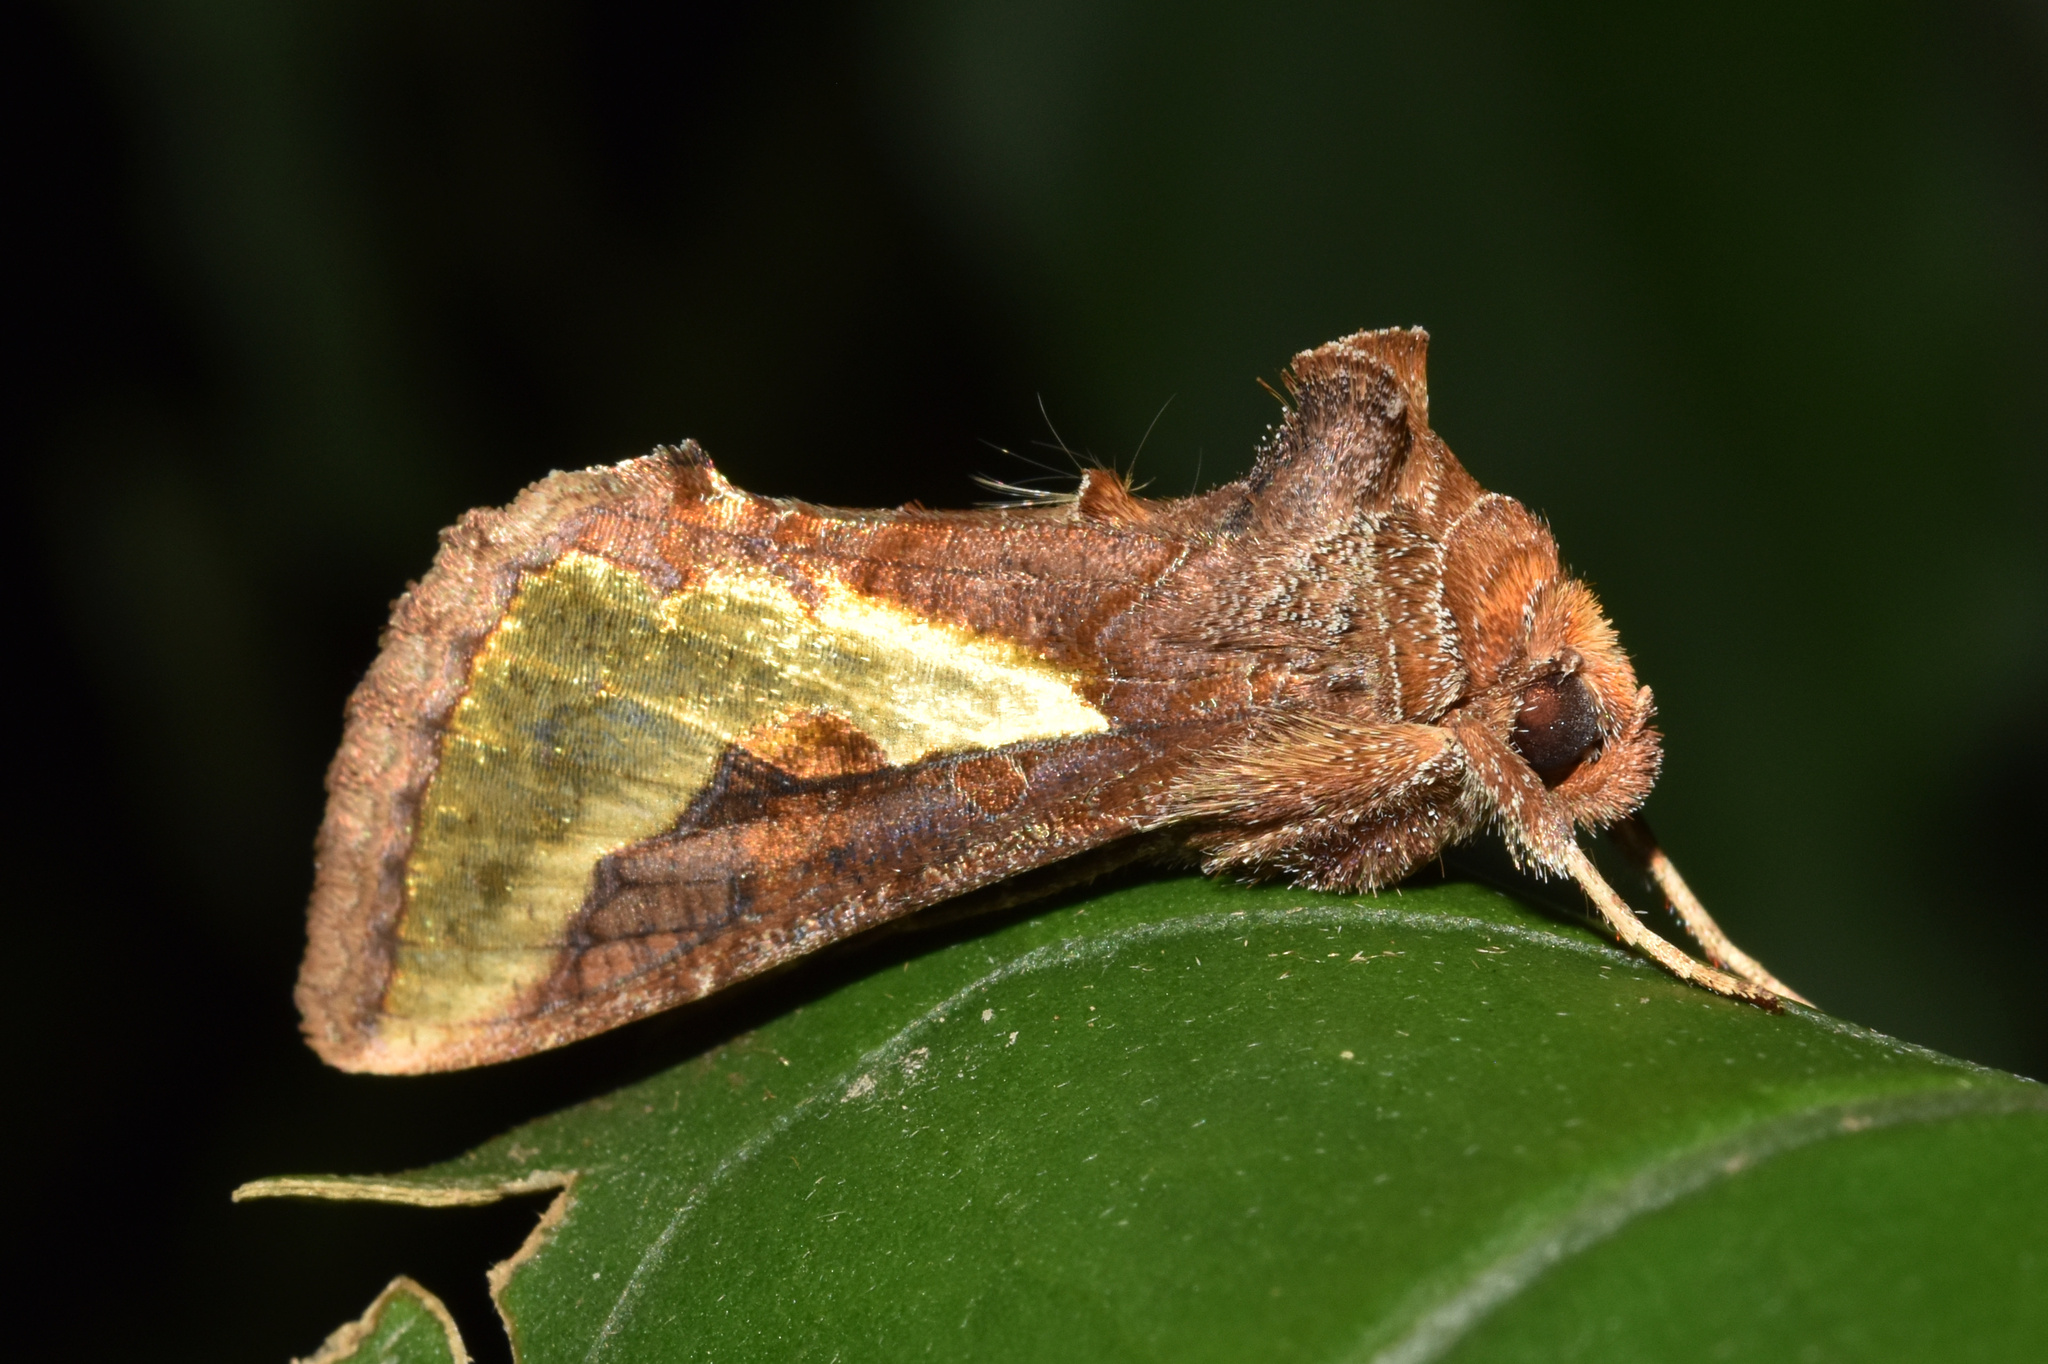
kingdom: Animalia
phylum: Arthropoda
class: Insecta
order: Lepidoptera
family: Noctuidae
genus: Thysanoplusia
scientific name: Thysanoplusia orichalcea
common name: Slender burnished brass, golden plusia
